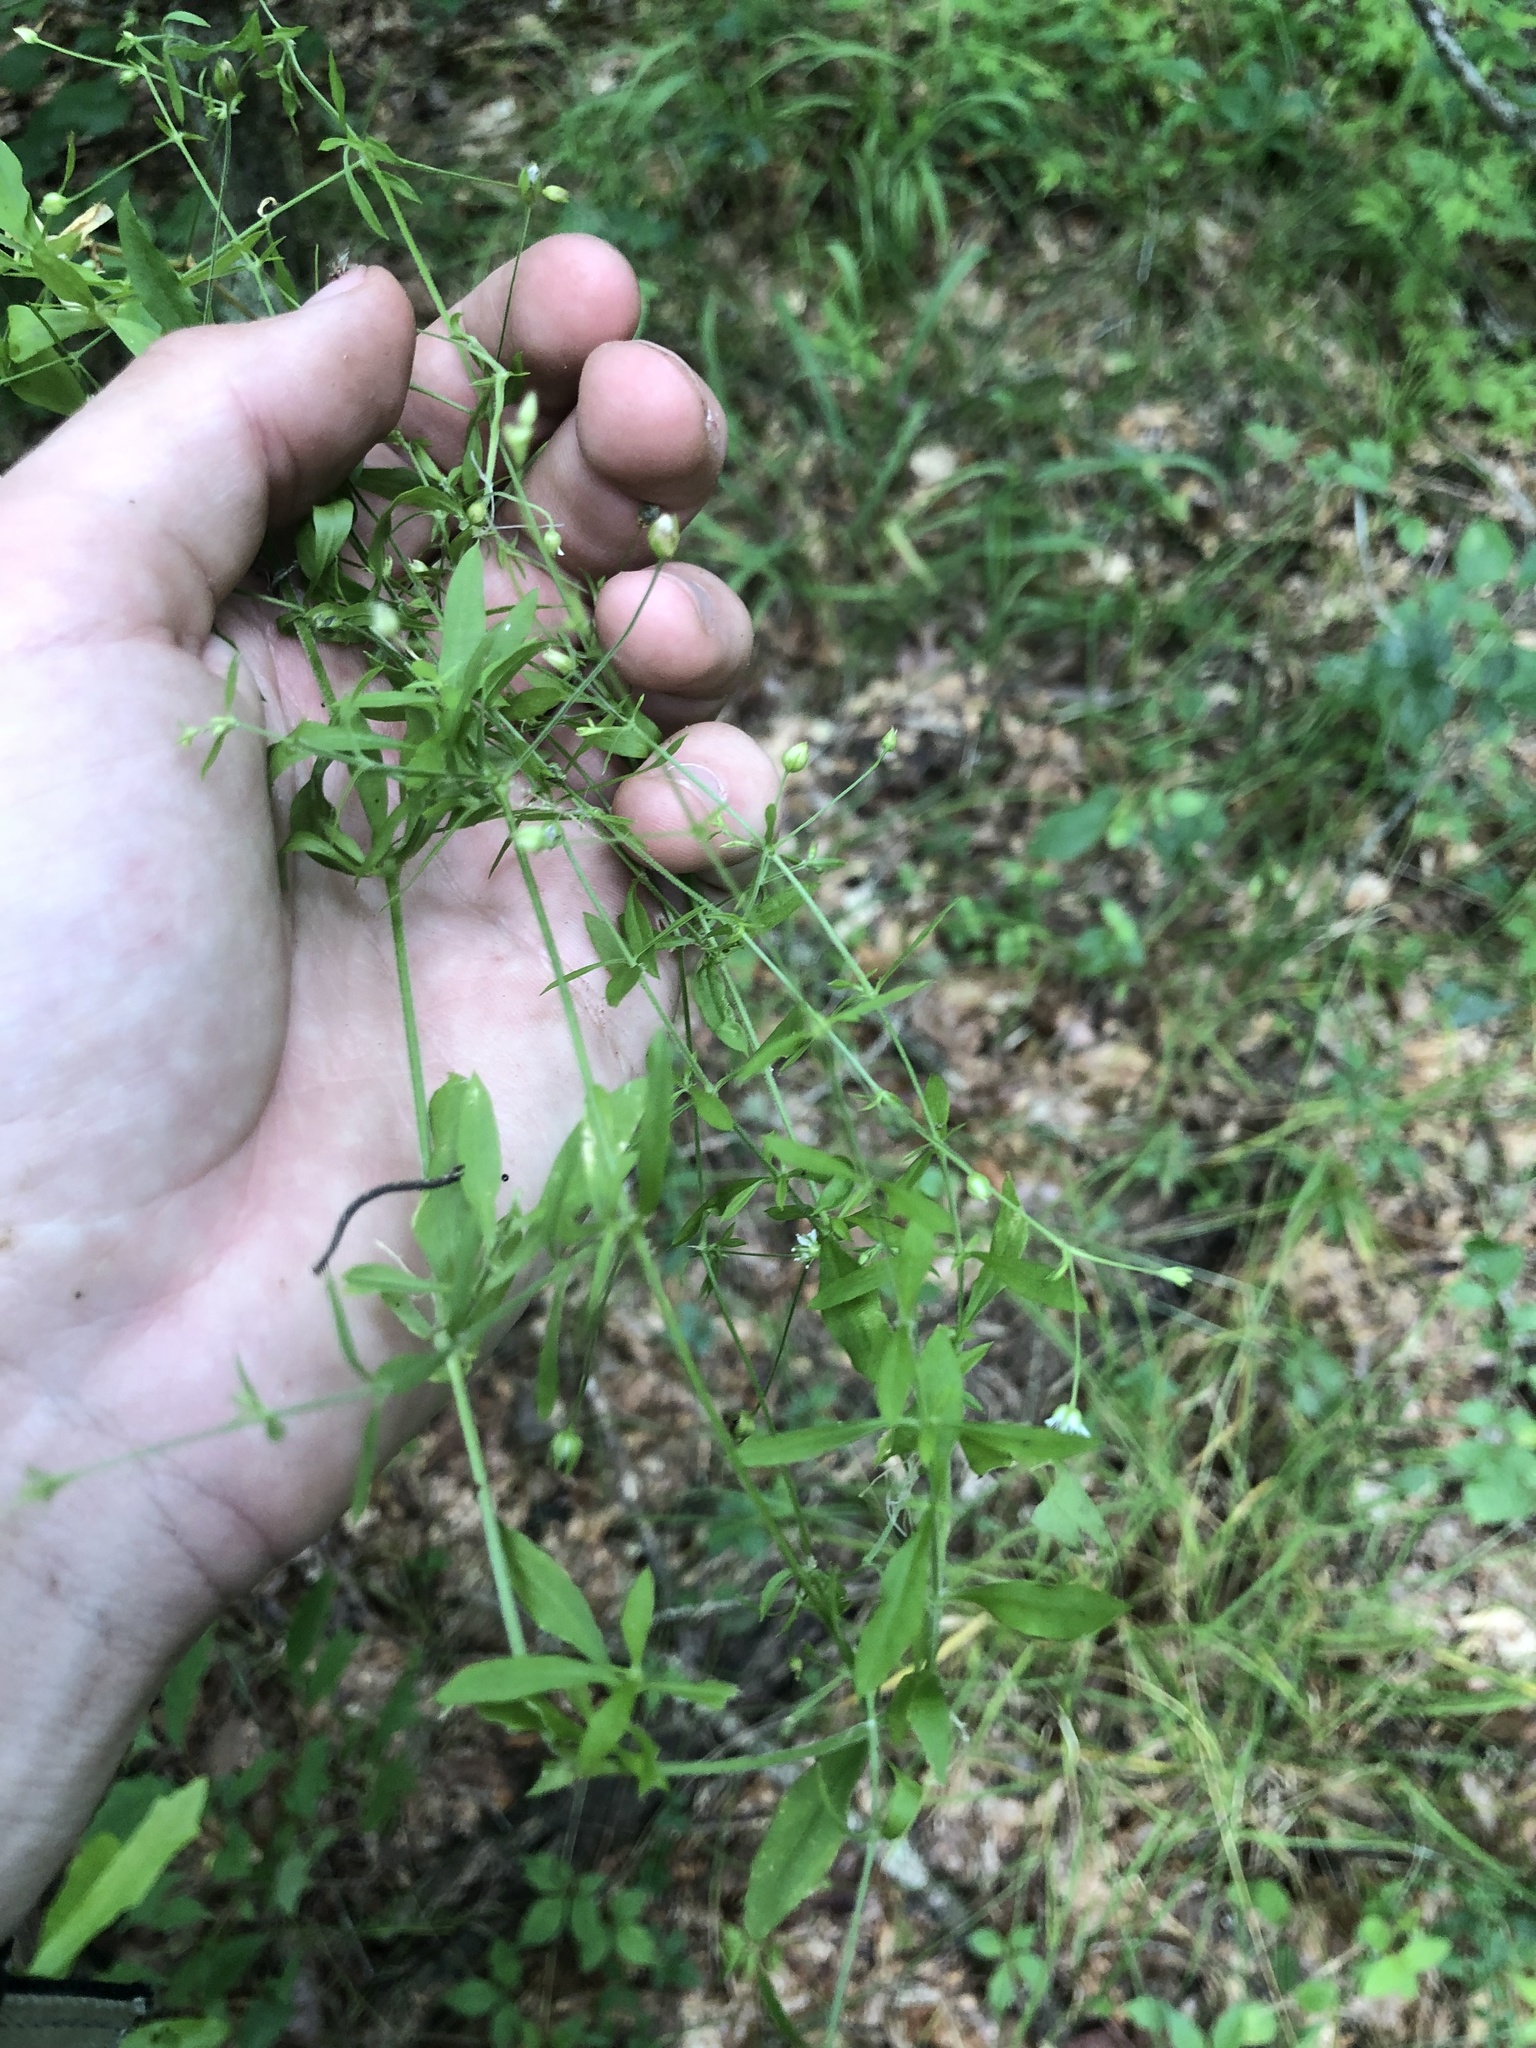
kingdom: Plantae
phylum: Tracheophyta
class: Magnoliopsida
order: Caryophyllales
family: Caryophyllaceae
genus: Cerastium
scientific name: Cerastium nutans
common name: Long-stalked chickweed
